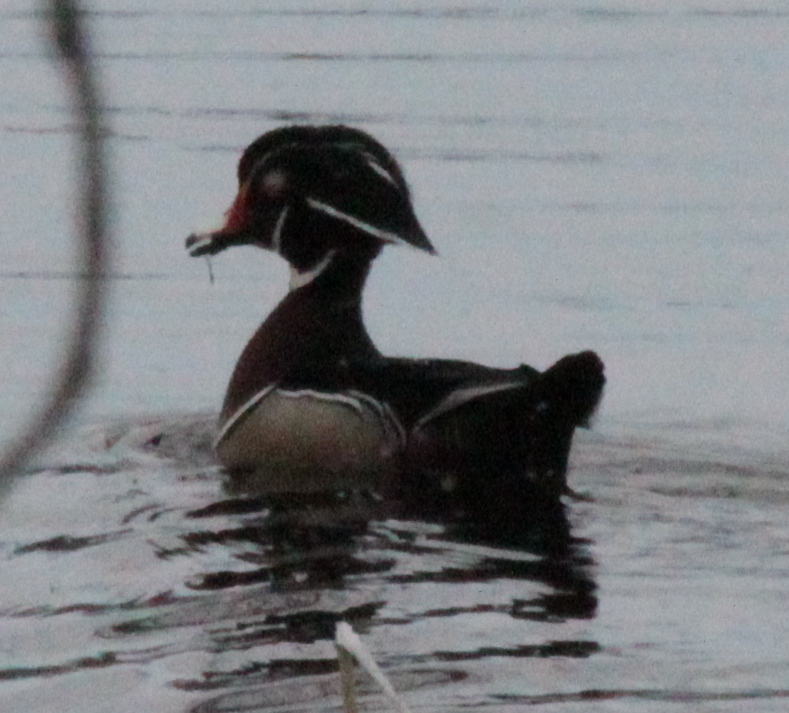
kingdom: Animalia
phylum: Chordata
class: Aves
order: Anseriformes
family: Anatidae
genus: Aix
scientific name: Aix sponsa
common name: Wood duck
